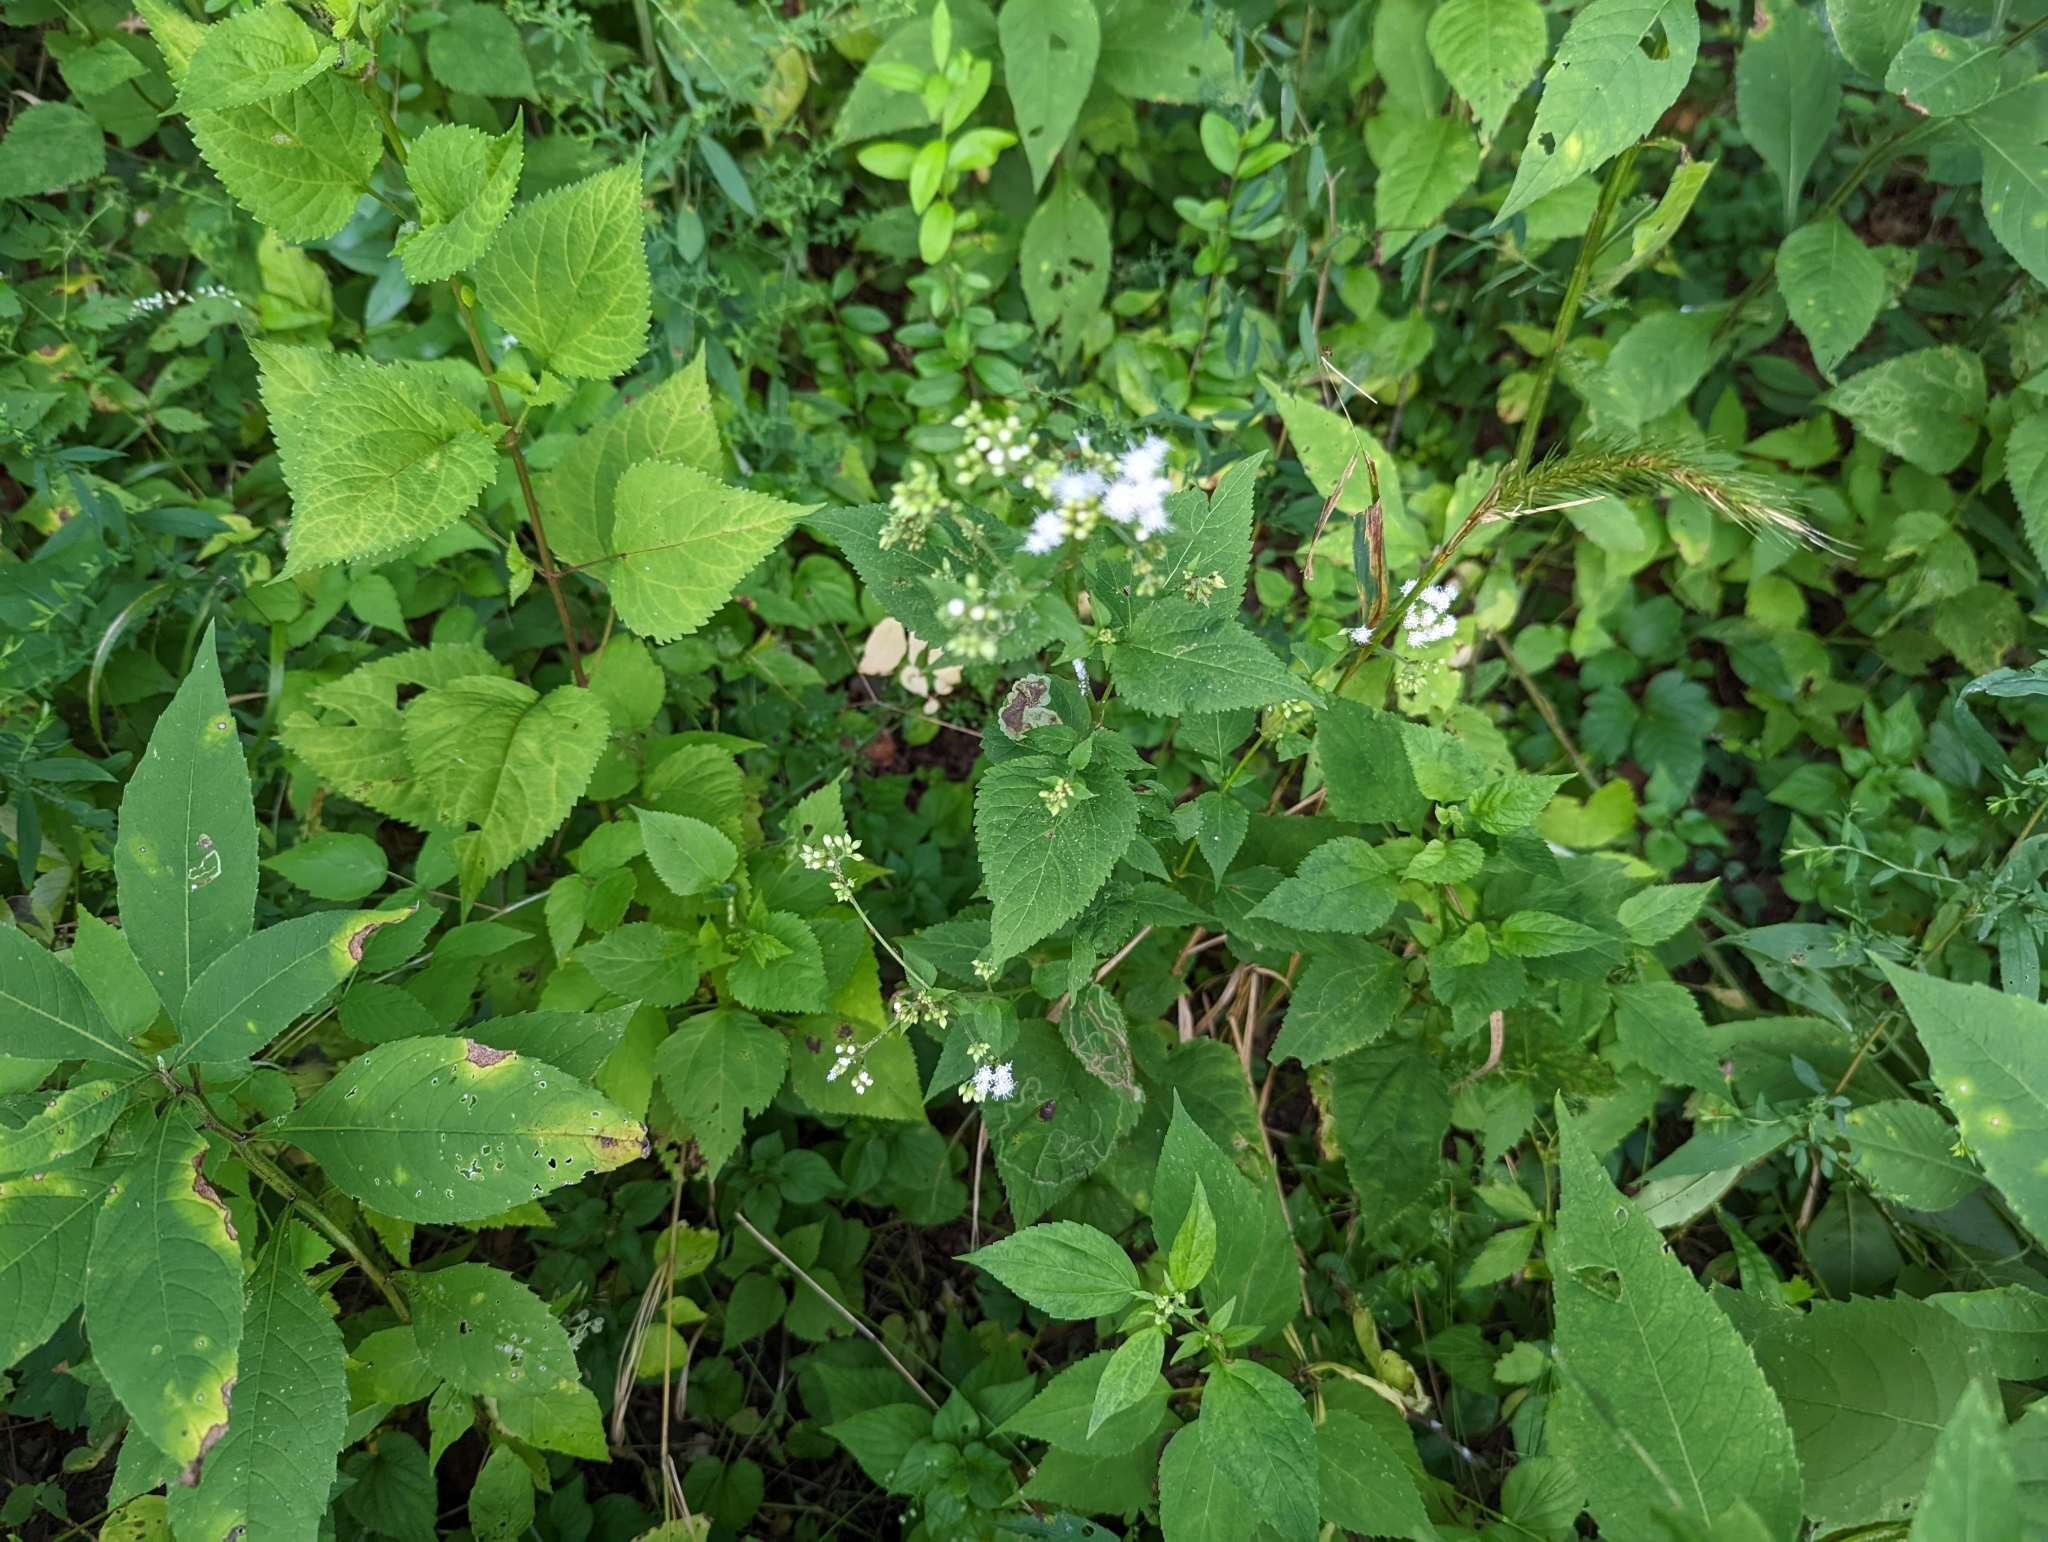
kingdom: Plantae
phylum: Tracheophyta
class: Magnoliopsida
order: Asterales
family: Asteraceae
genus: Ageratina
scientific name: Ageratina altissima
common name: White snakeroot
